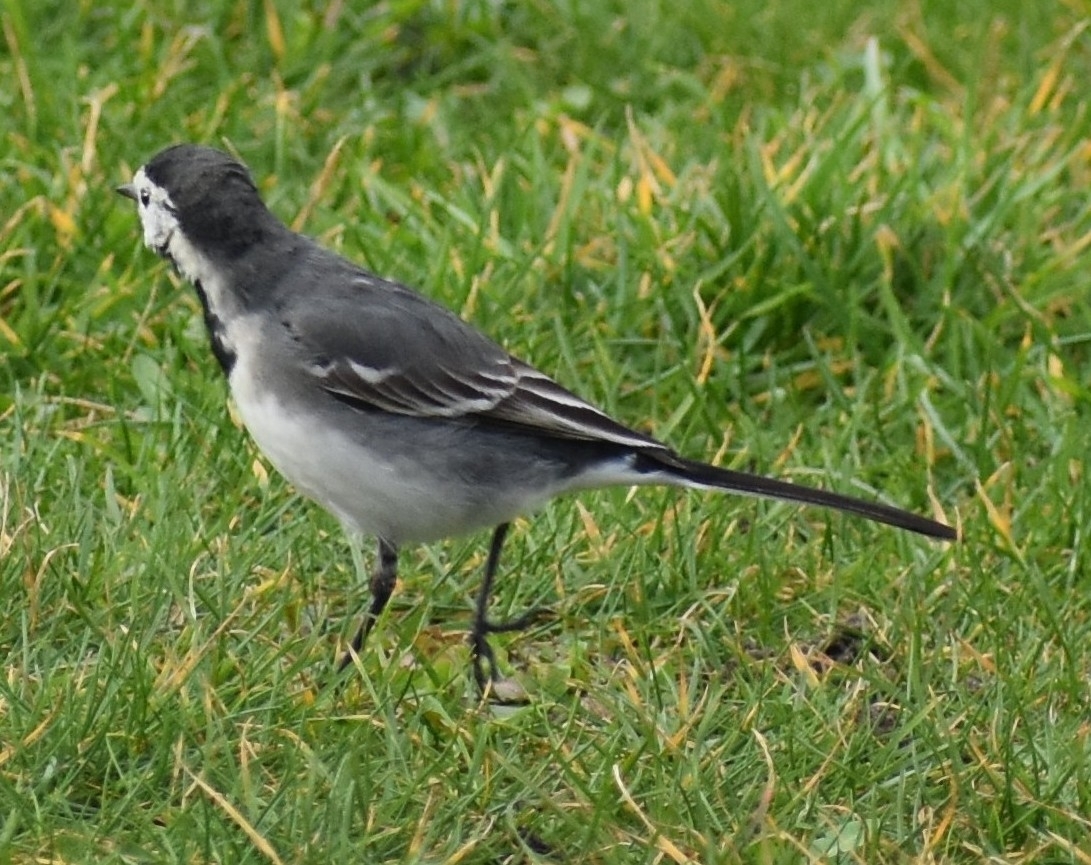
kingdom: Animalia
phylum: Chordata
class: Aves
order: Passeriformes
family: Motacillidae
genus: Motacilla
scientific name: Motacilla alba
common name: White wagtail
